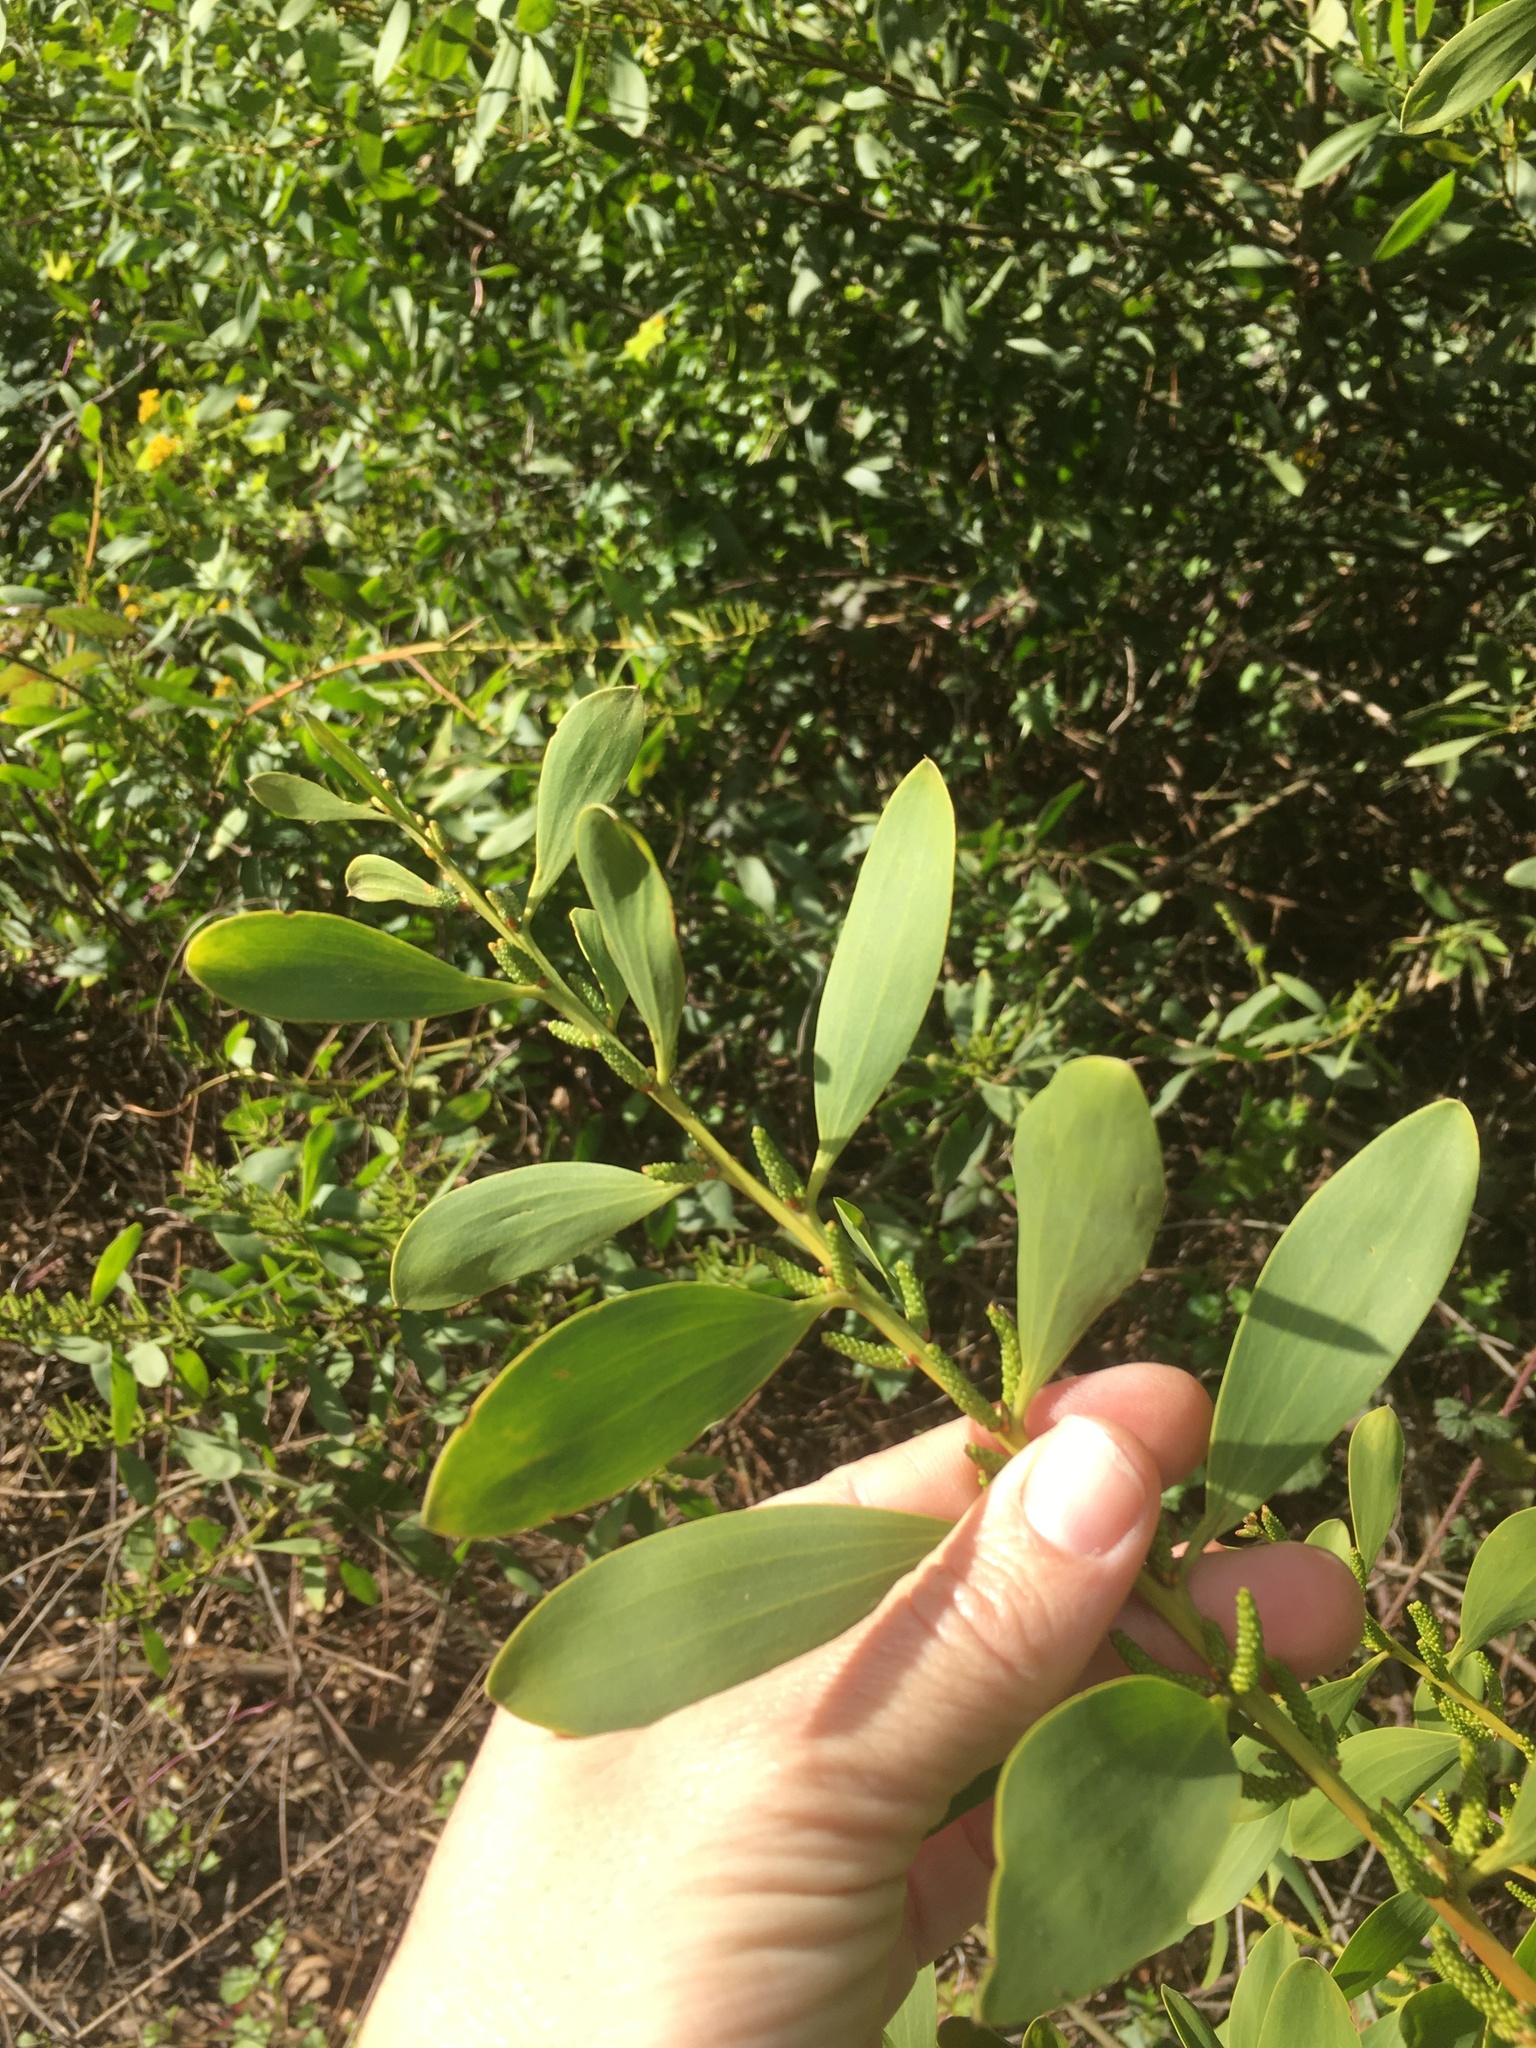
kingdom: Plantae
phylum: Tracheophyta
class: Magnoliopsida
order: Fabales
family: Fabaceae
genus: Acacia
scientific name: Acacia longifolia
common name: Sydney golden wattle
